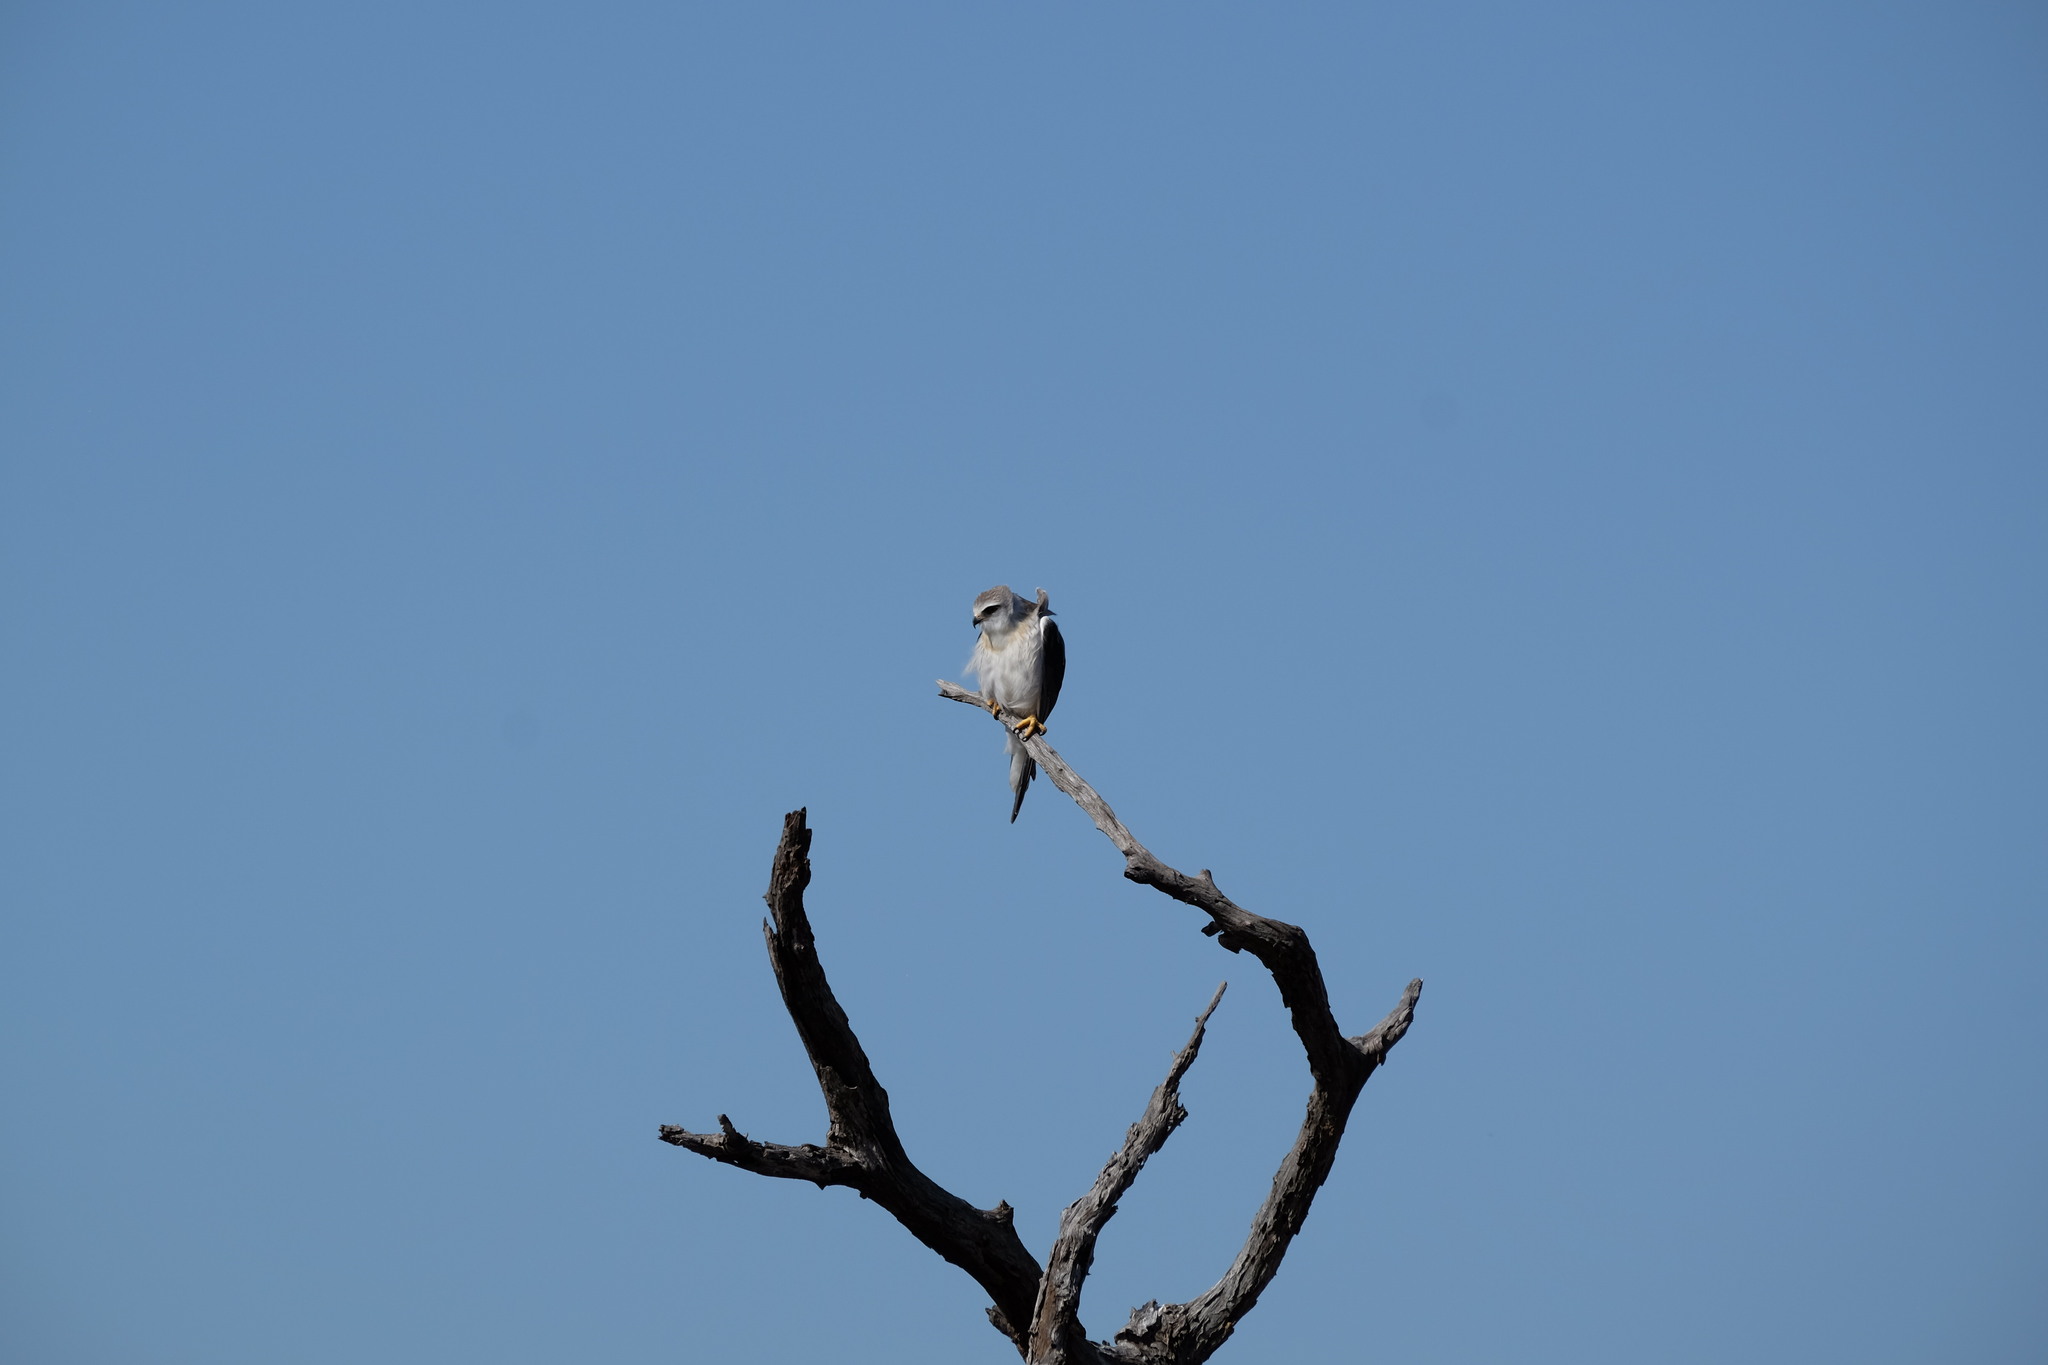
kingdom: Animalia
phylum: Chordata
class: Aves
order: Accipitriformes
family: Accipitridae
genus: Elanus
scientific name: Elanus caeruleus
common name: Black-winged kite
